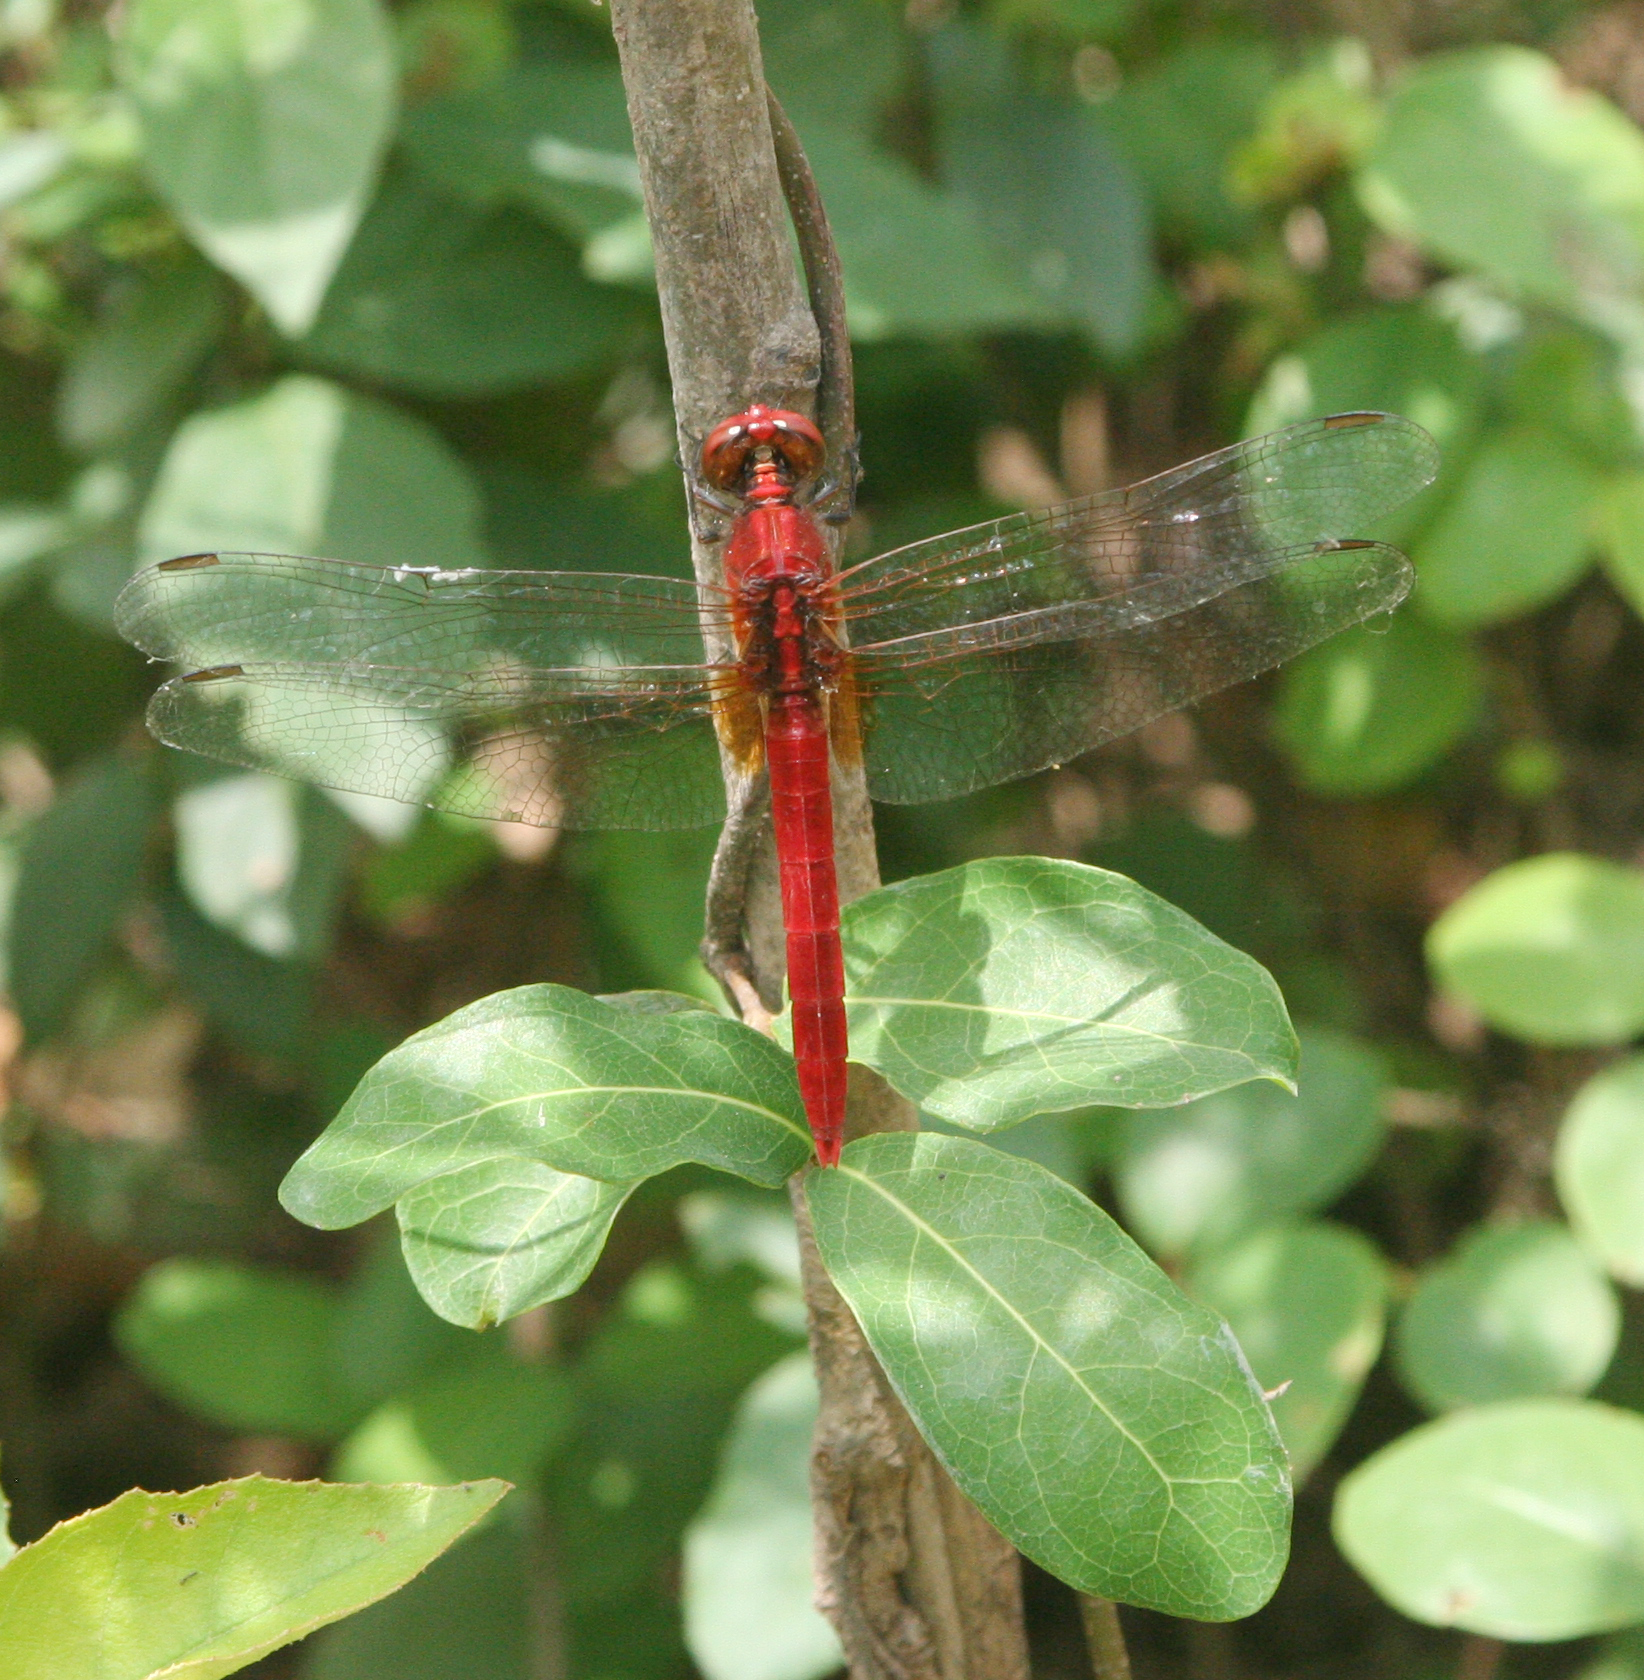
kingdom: Animalia
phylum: Arthropoda
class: Insecta
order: Odonata
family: Libellulidae
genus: Rhodothemis
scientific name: Rhodothemis rufa
